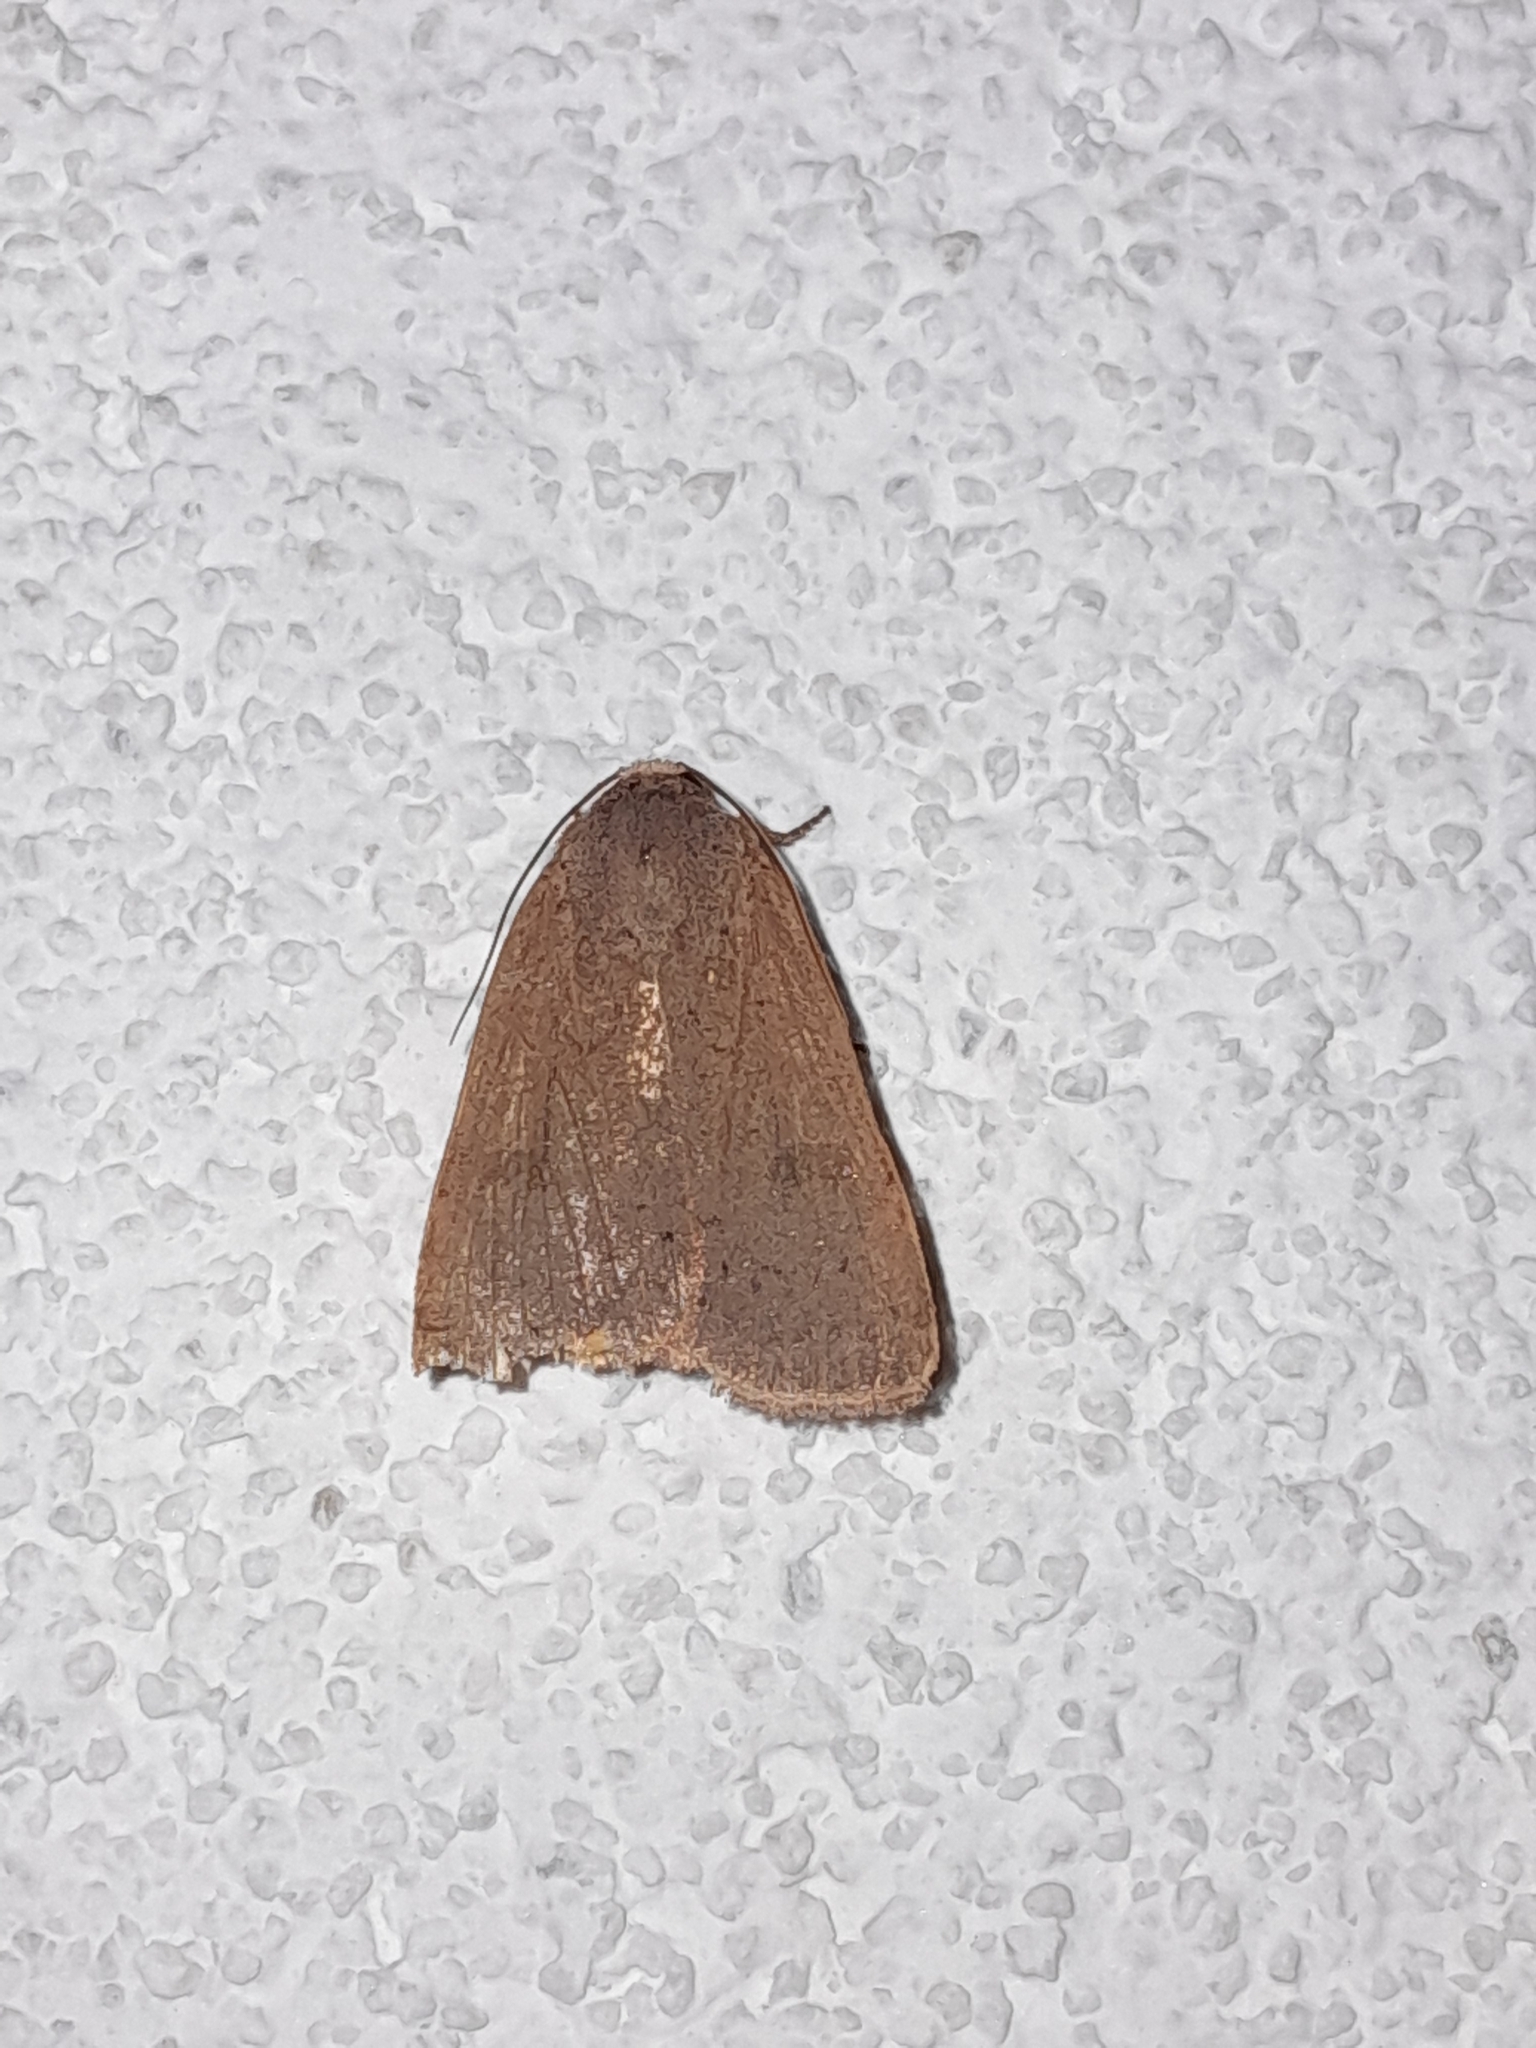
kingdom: Animalia
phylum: Arthropoda
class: Insecta
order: Lepidoptera
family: Noctuidae
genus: Noctua
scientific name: Noctua comes
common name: Lesser yellow underwing
